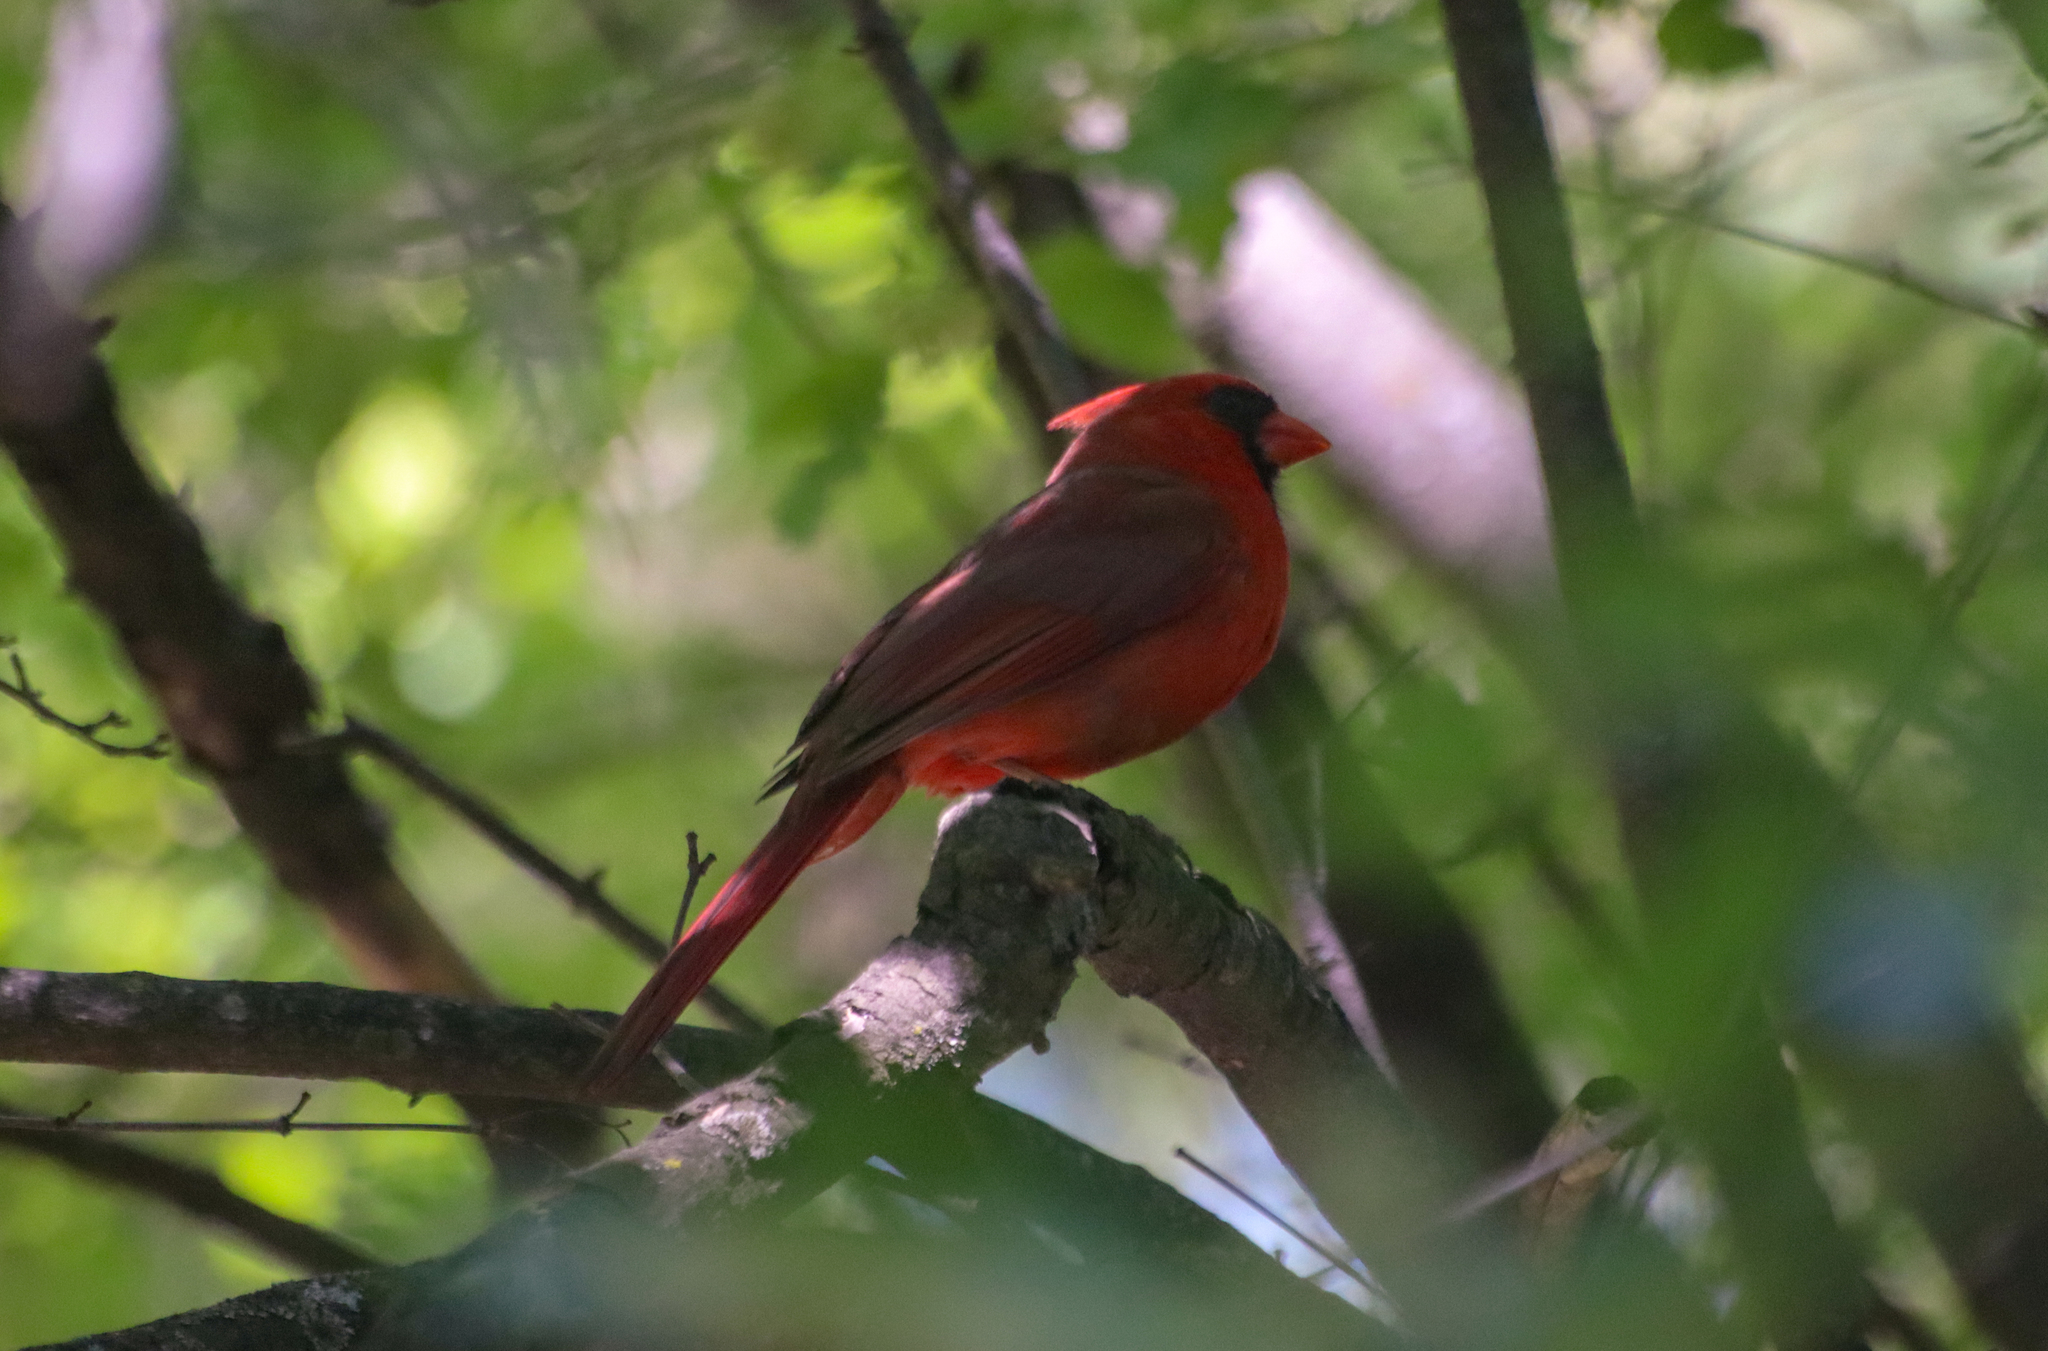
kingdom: Animalia
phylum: Chordata
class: Aves
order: Passeriformes
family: Cardinalidae
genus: Cardinalis
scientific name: Cardinalis cardinalis
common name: Northern cardinal
